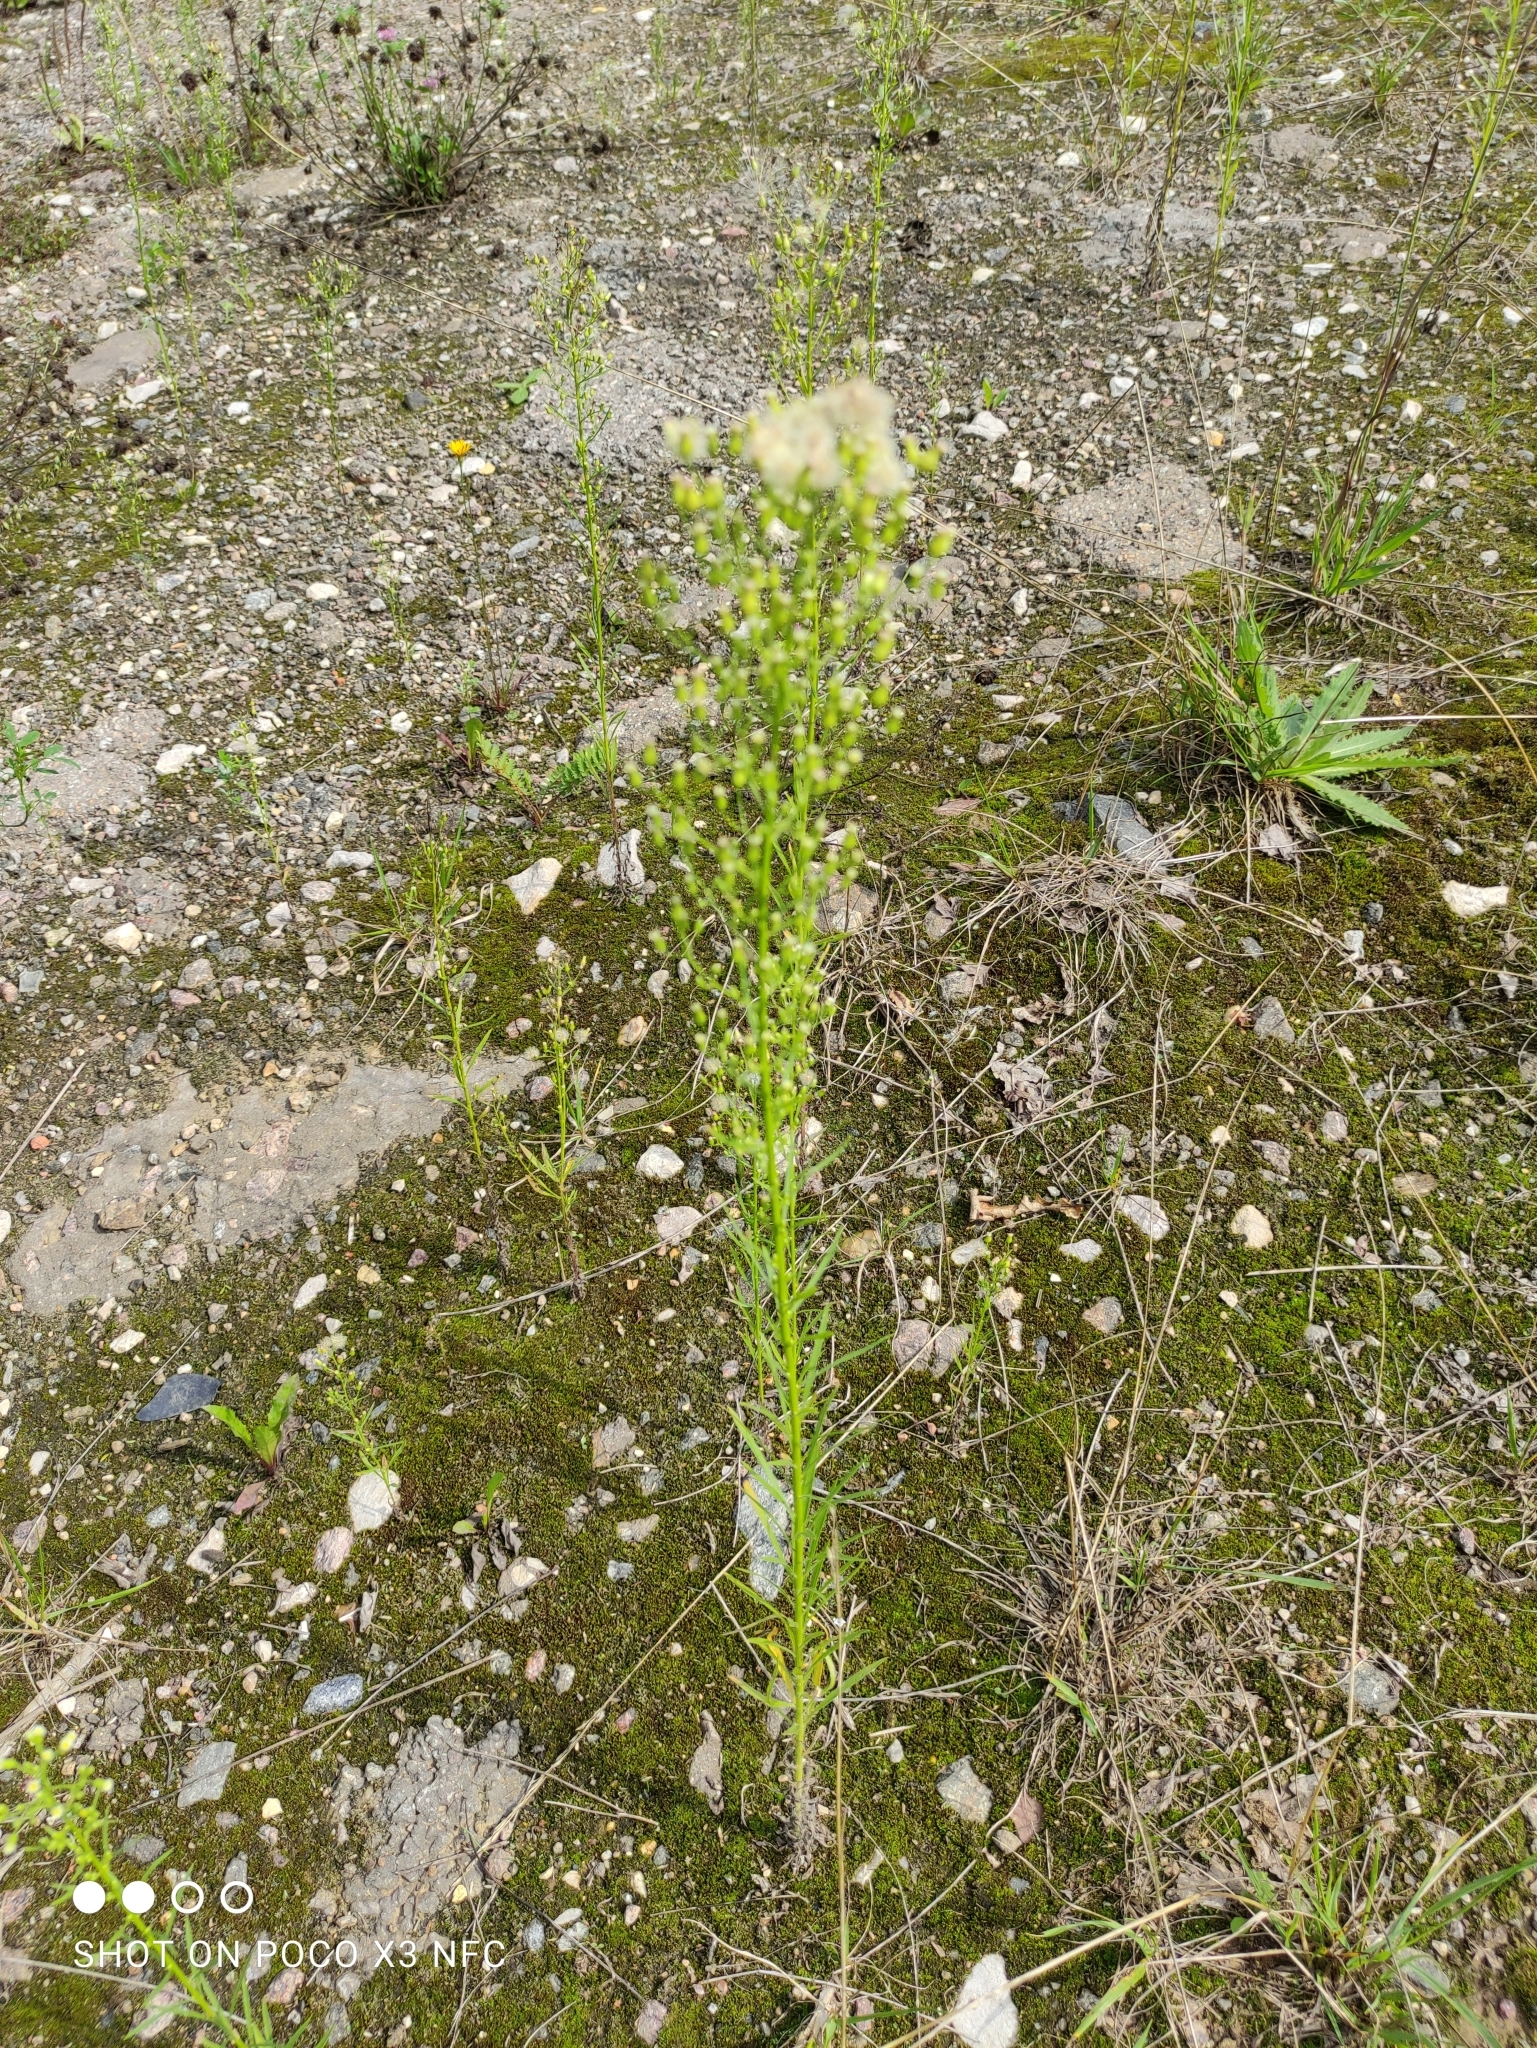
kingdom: Plantae
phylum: Tracheophyta
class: Magnoliopsida
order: Asterales
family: Asteraceae
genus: Erigeron
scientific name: Erigeron canadensis
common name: Canadian fleabane
